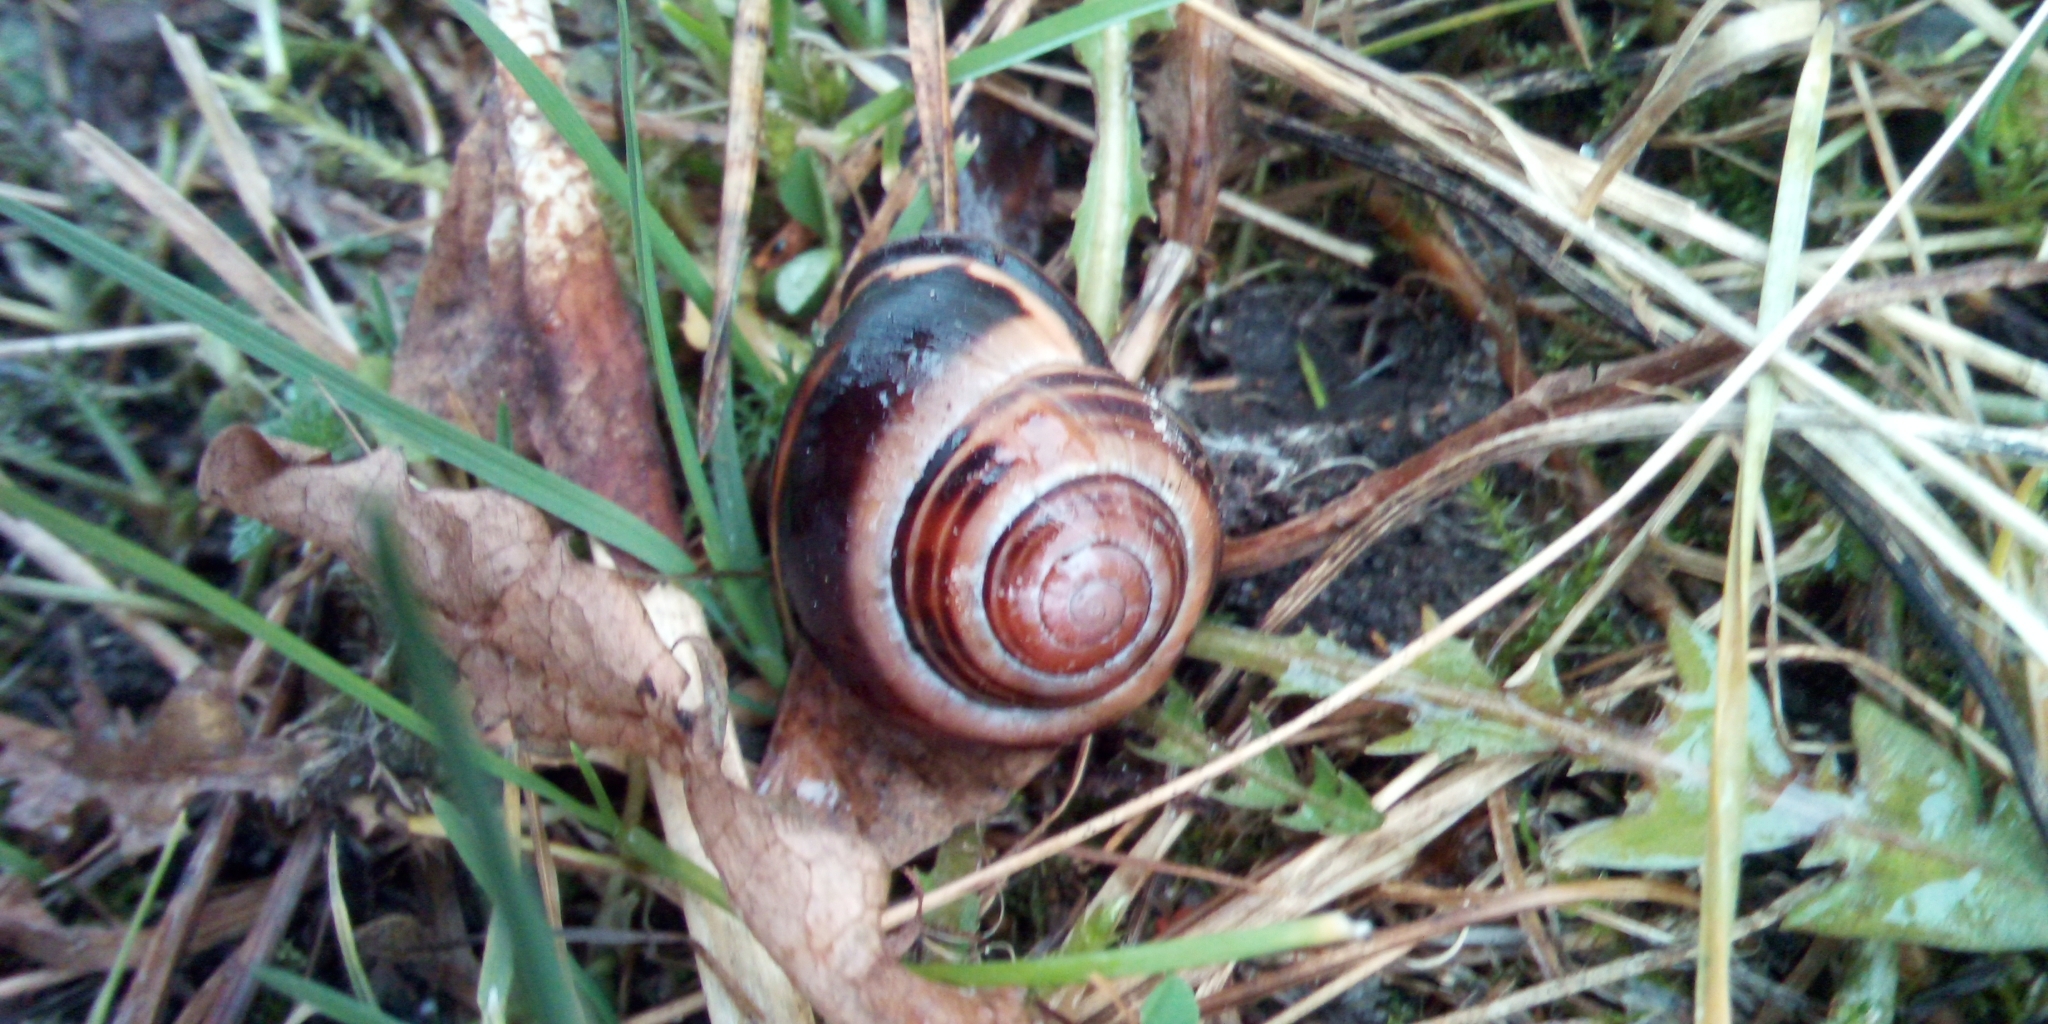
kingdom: Animalia
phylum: Mollusca
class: Gastropoda
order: Stylommatophora
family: Helicidae
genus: Cepaea
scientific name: Cepaea nemoralis
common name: Grovesnail
